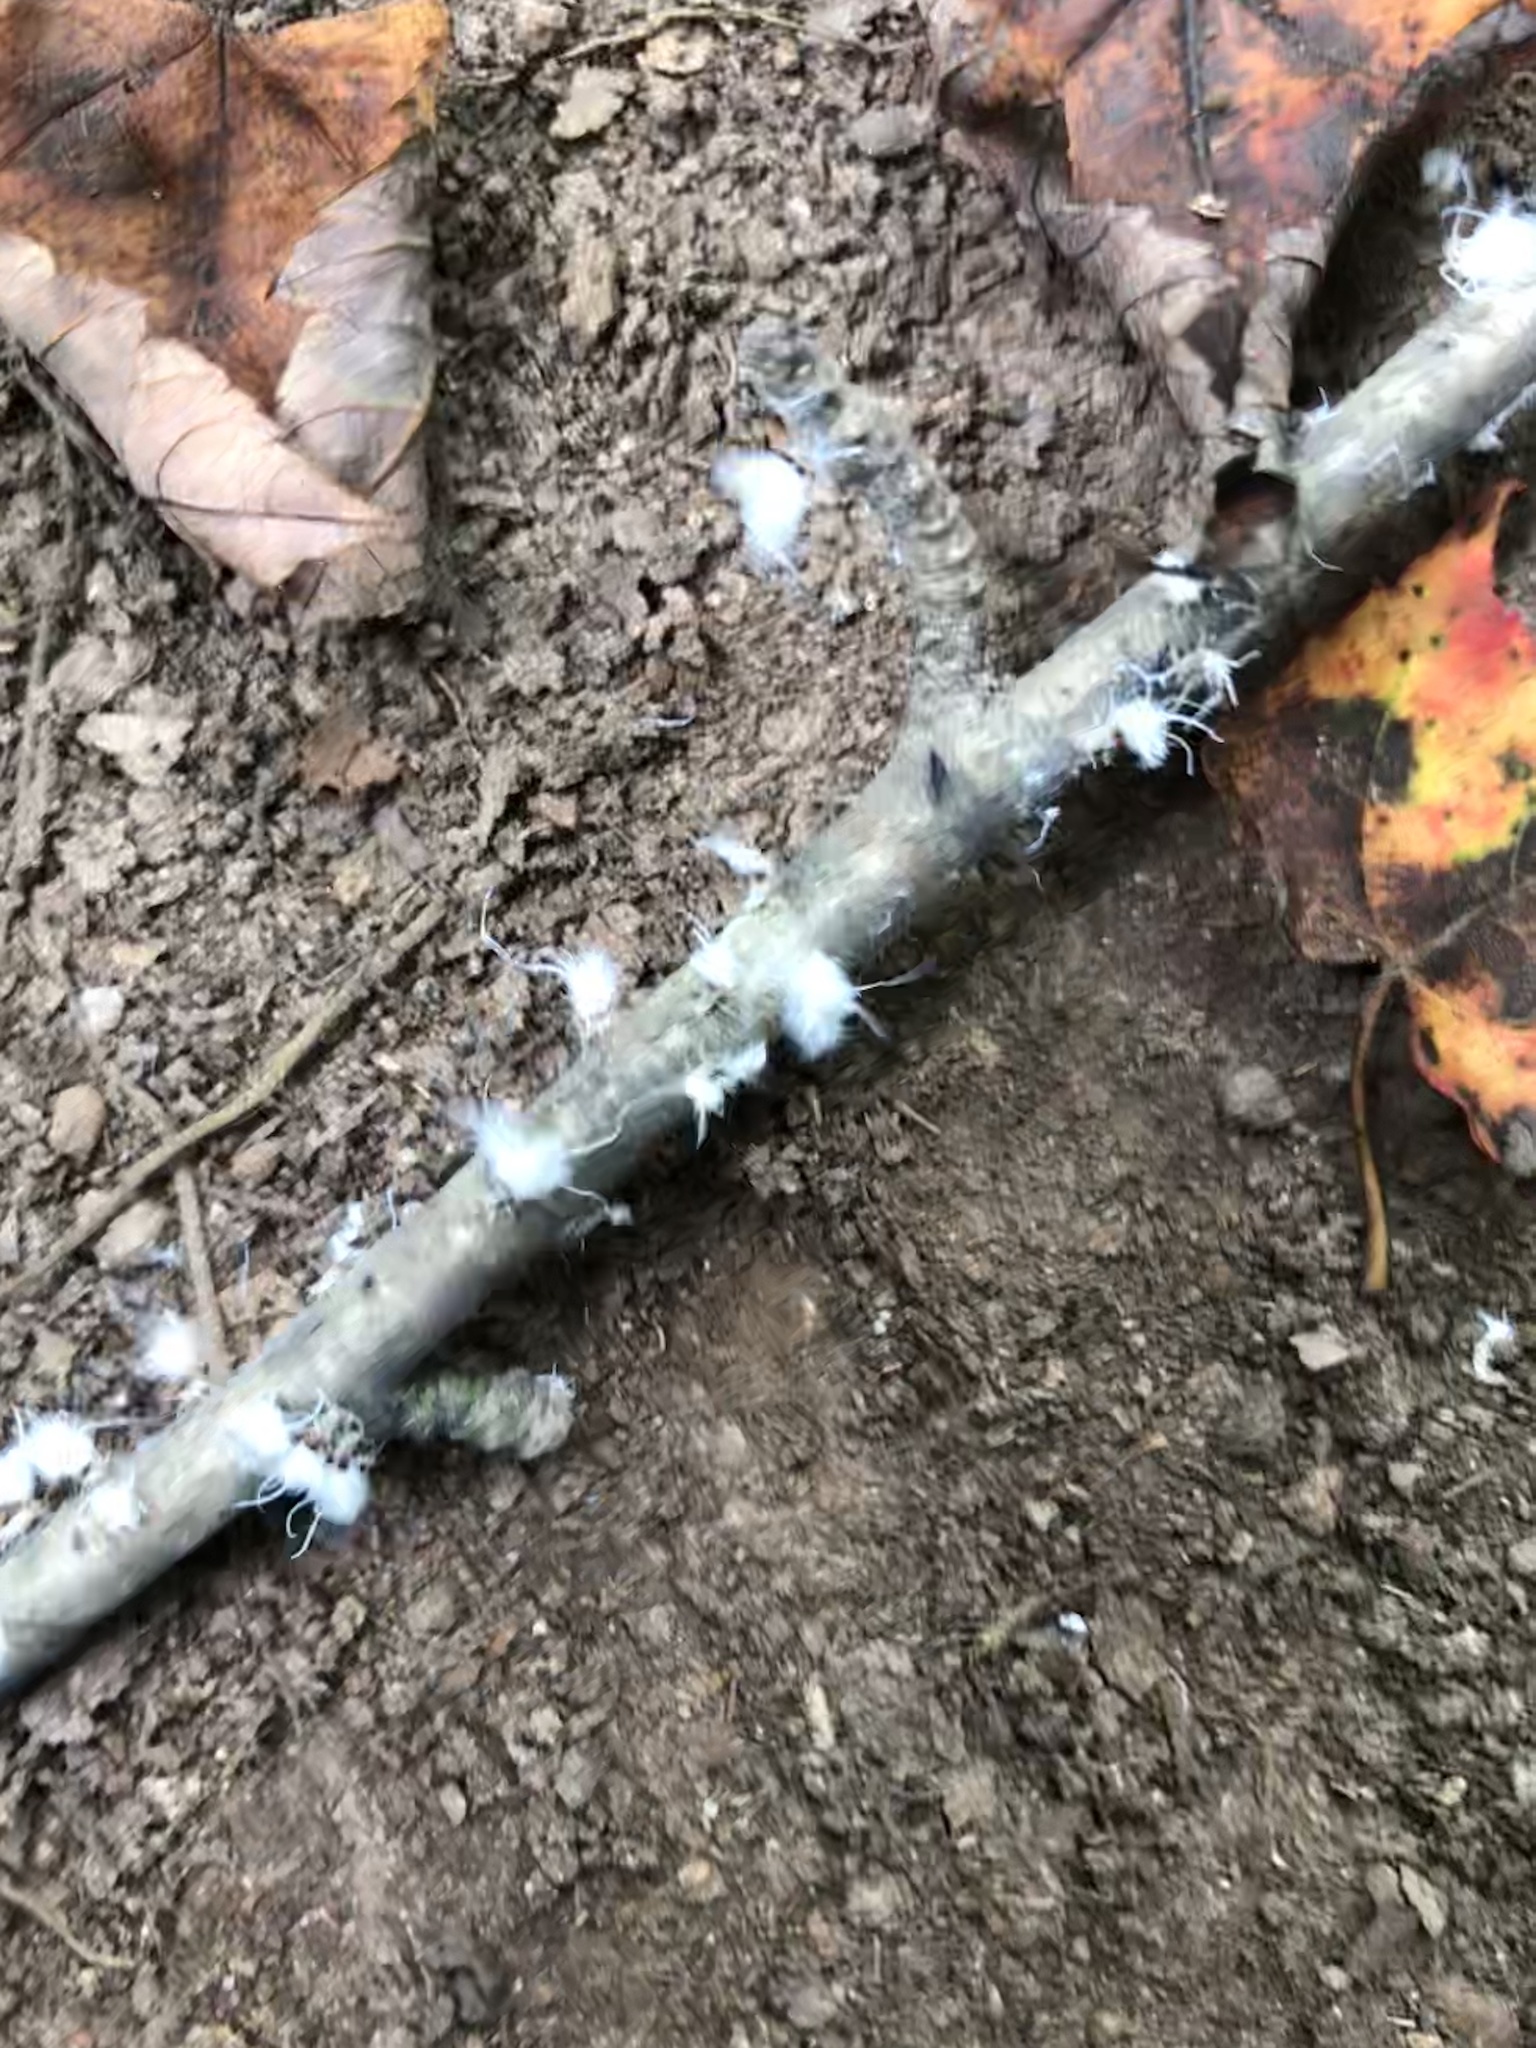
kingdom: Animalia
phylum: Arthropoda
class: Insecta
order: Hemiptera
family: Aphididae
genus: Grylloprociphilus
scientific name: Grylloprociphilus imbricator
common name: Beech blight aphid
